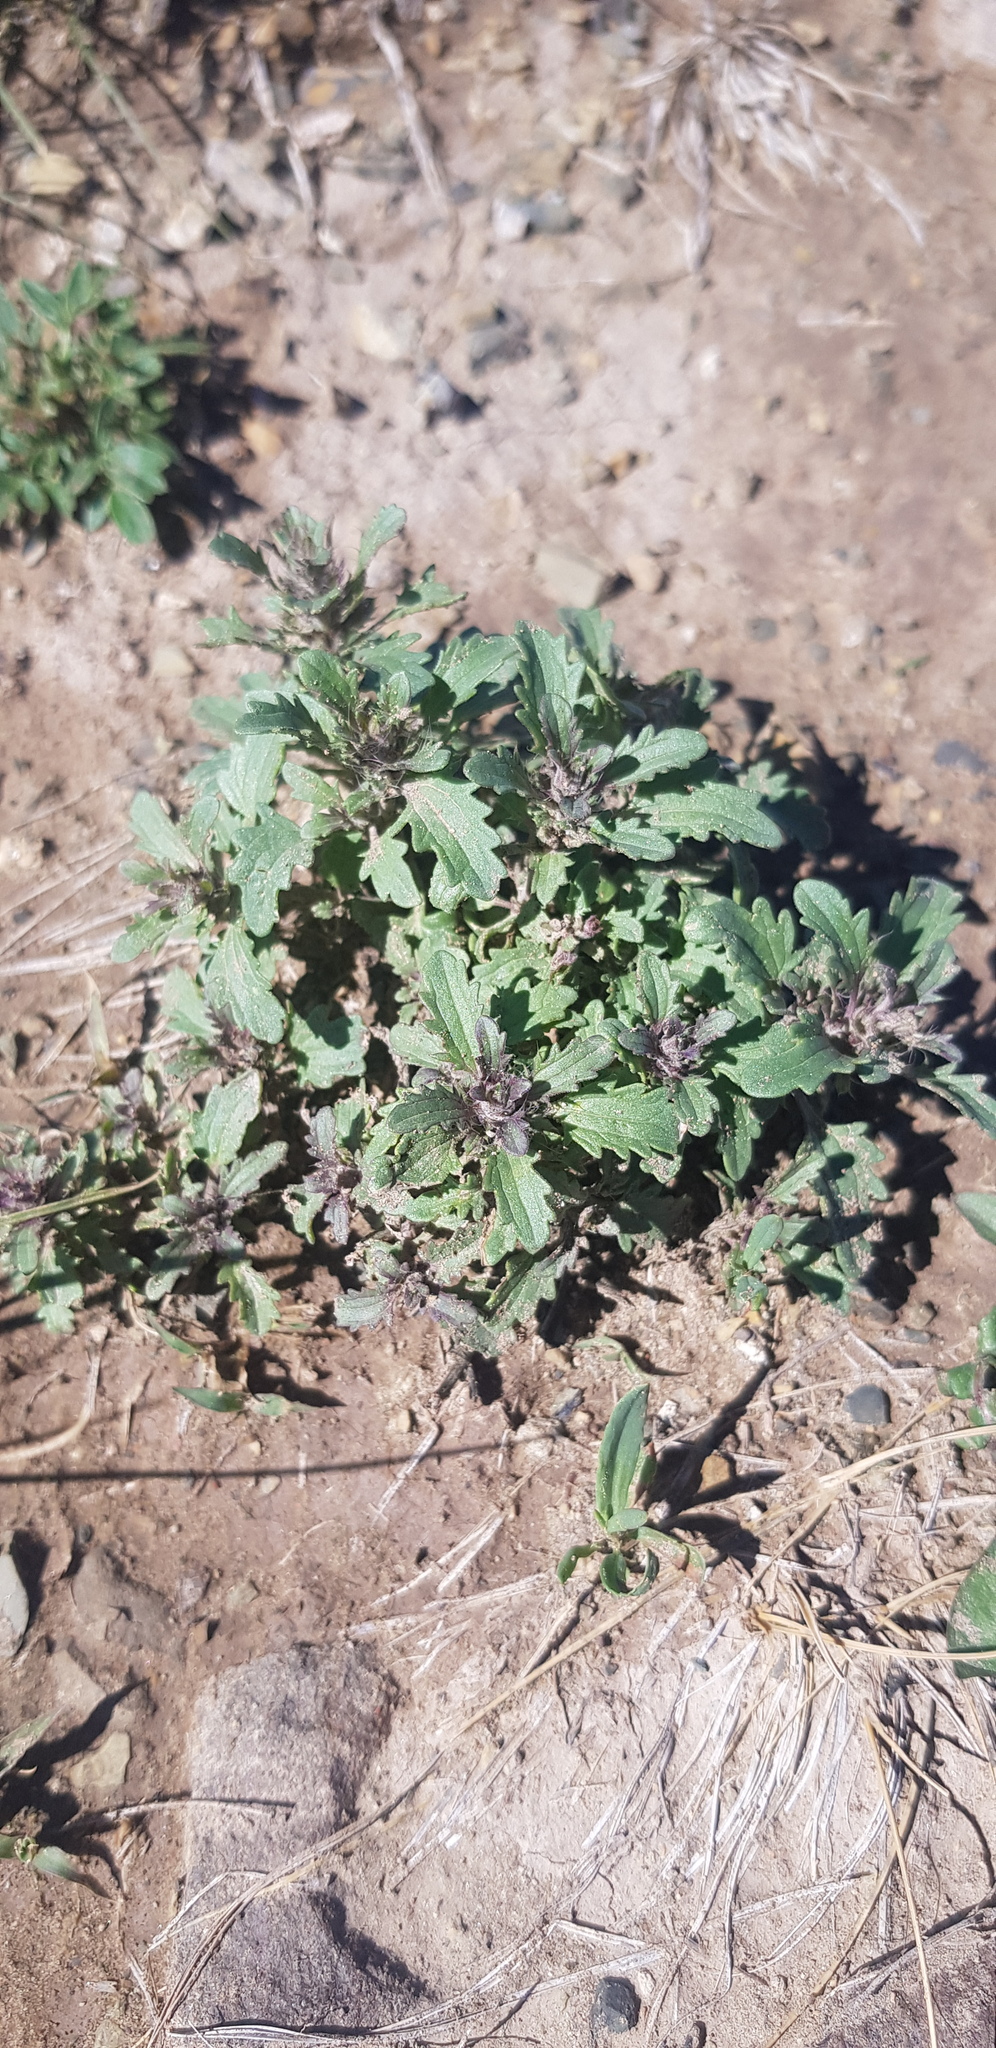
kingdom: Plantae
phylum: Tracheophyta
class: Magnoliopsida
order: Lamiales
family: Lamiaceae
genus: Dracocephalum
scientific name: Dracocephalum foetidum
